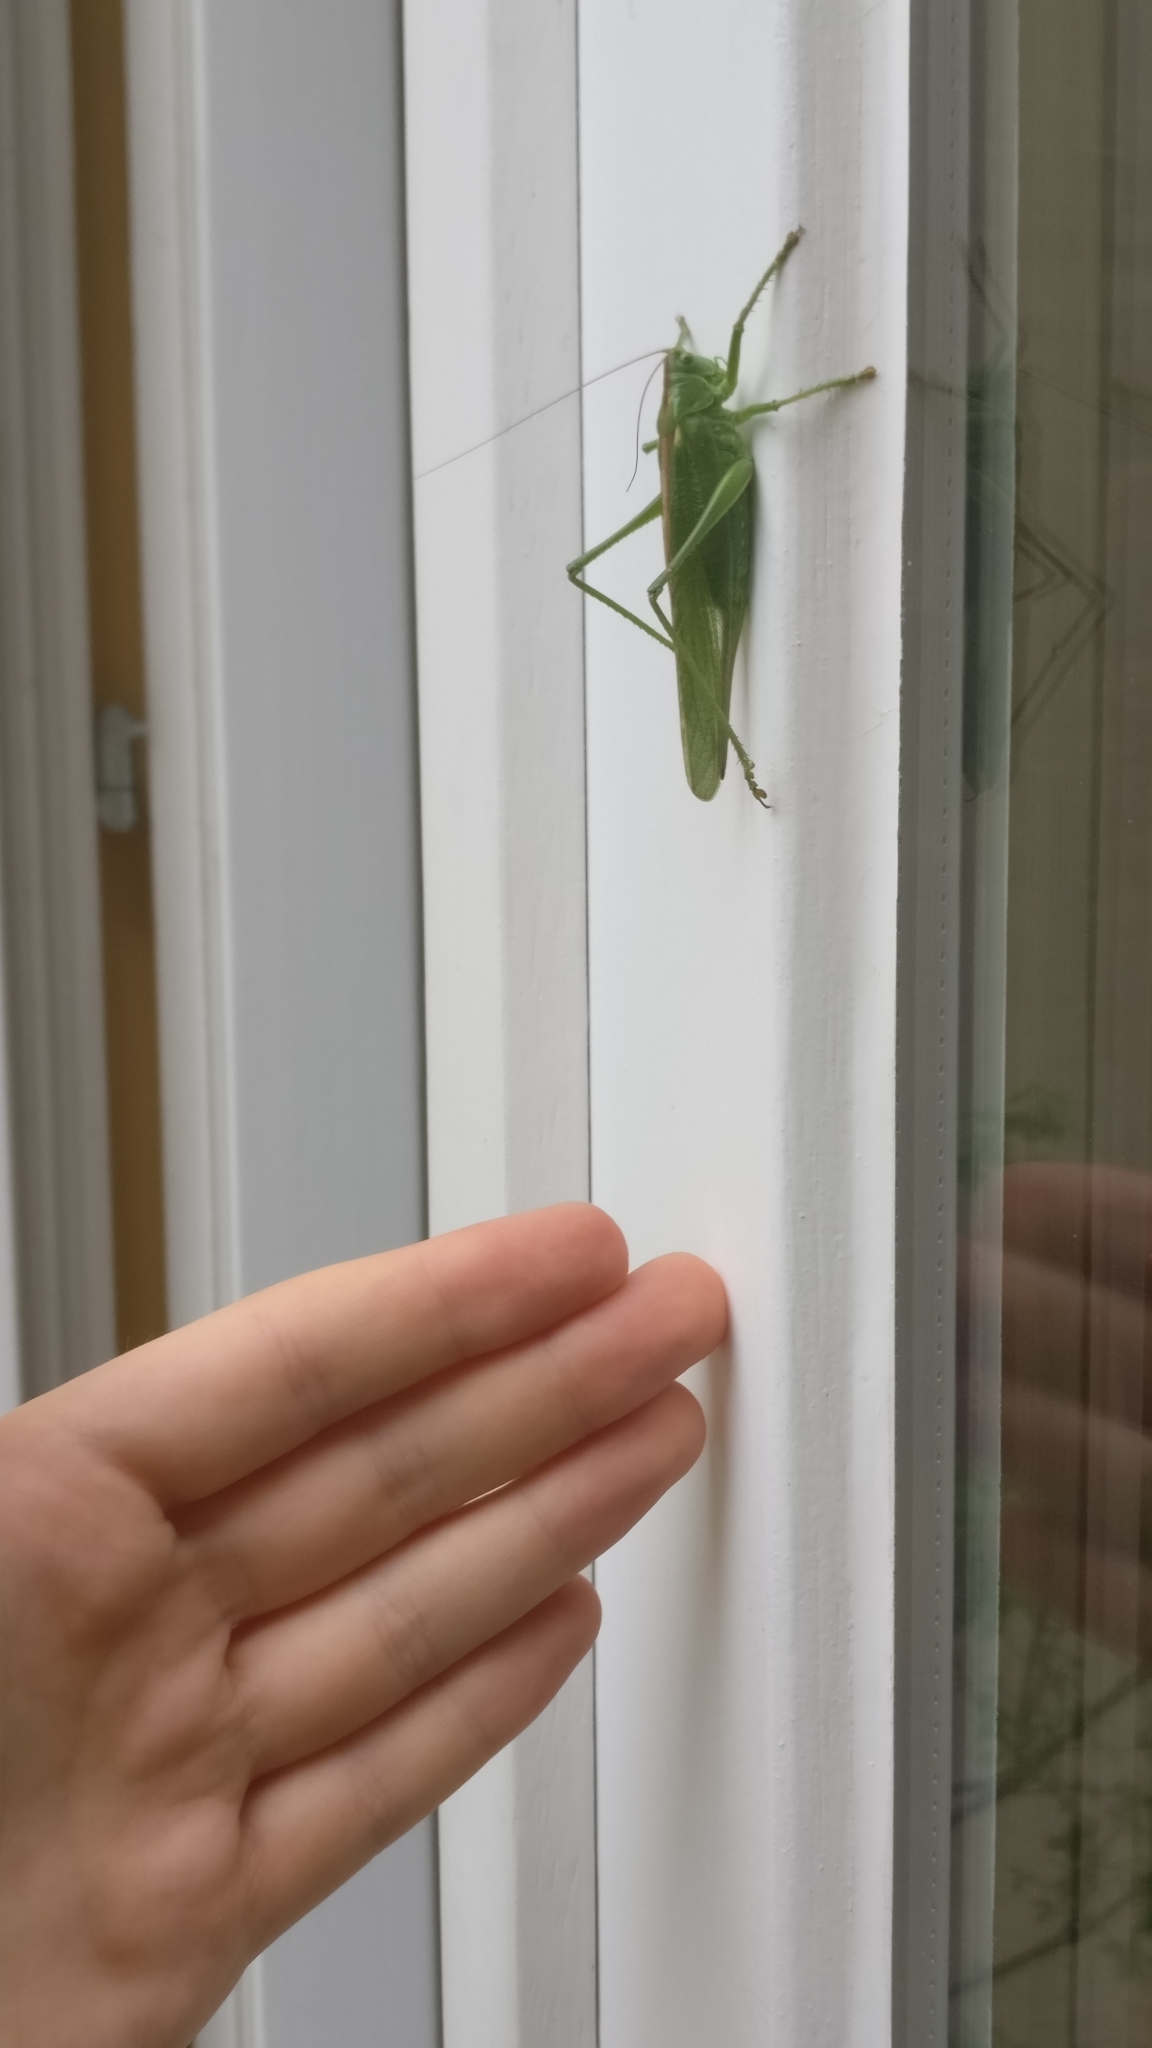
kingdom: Animalia
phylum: Arthropoda
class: Insecta
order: Orthoptera
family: Tettigoniidae
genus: Tettigonia
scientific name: Tettigonia viridissima
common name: Great green bush-cricket
